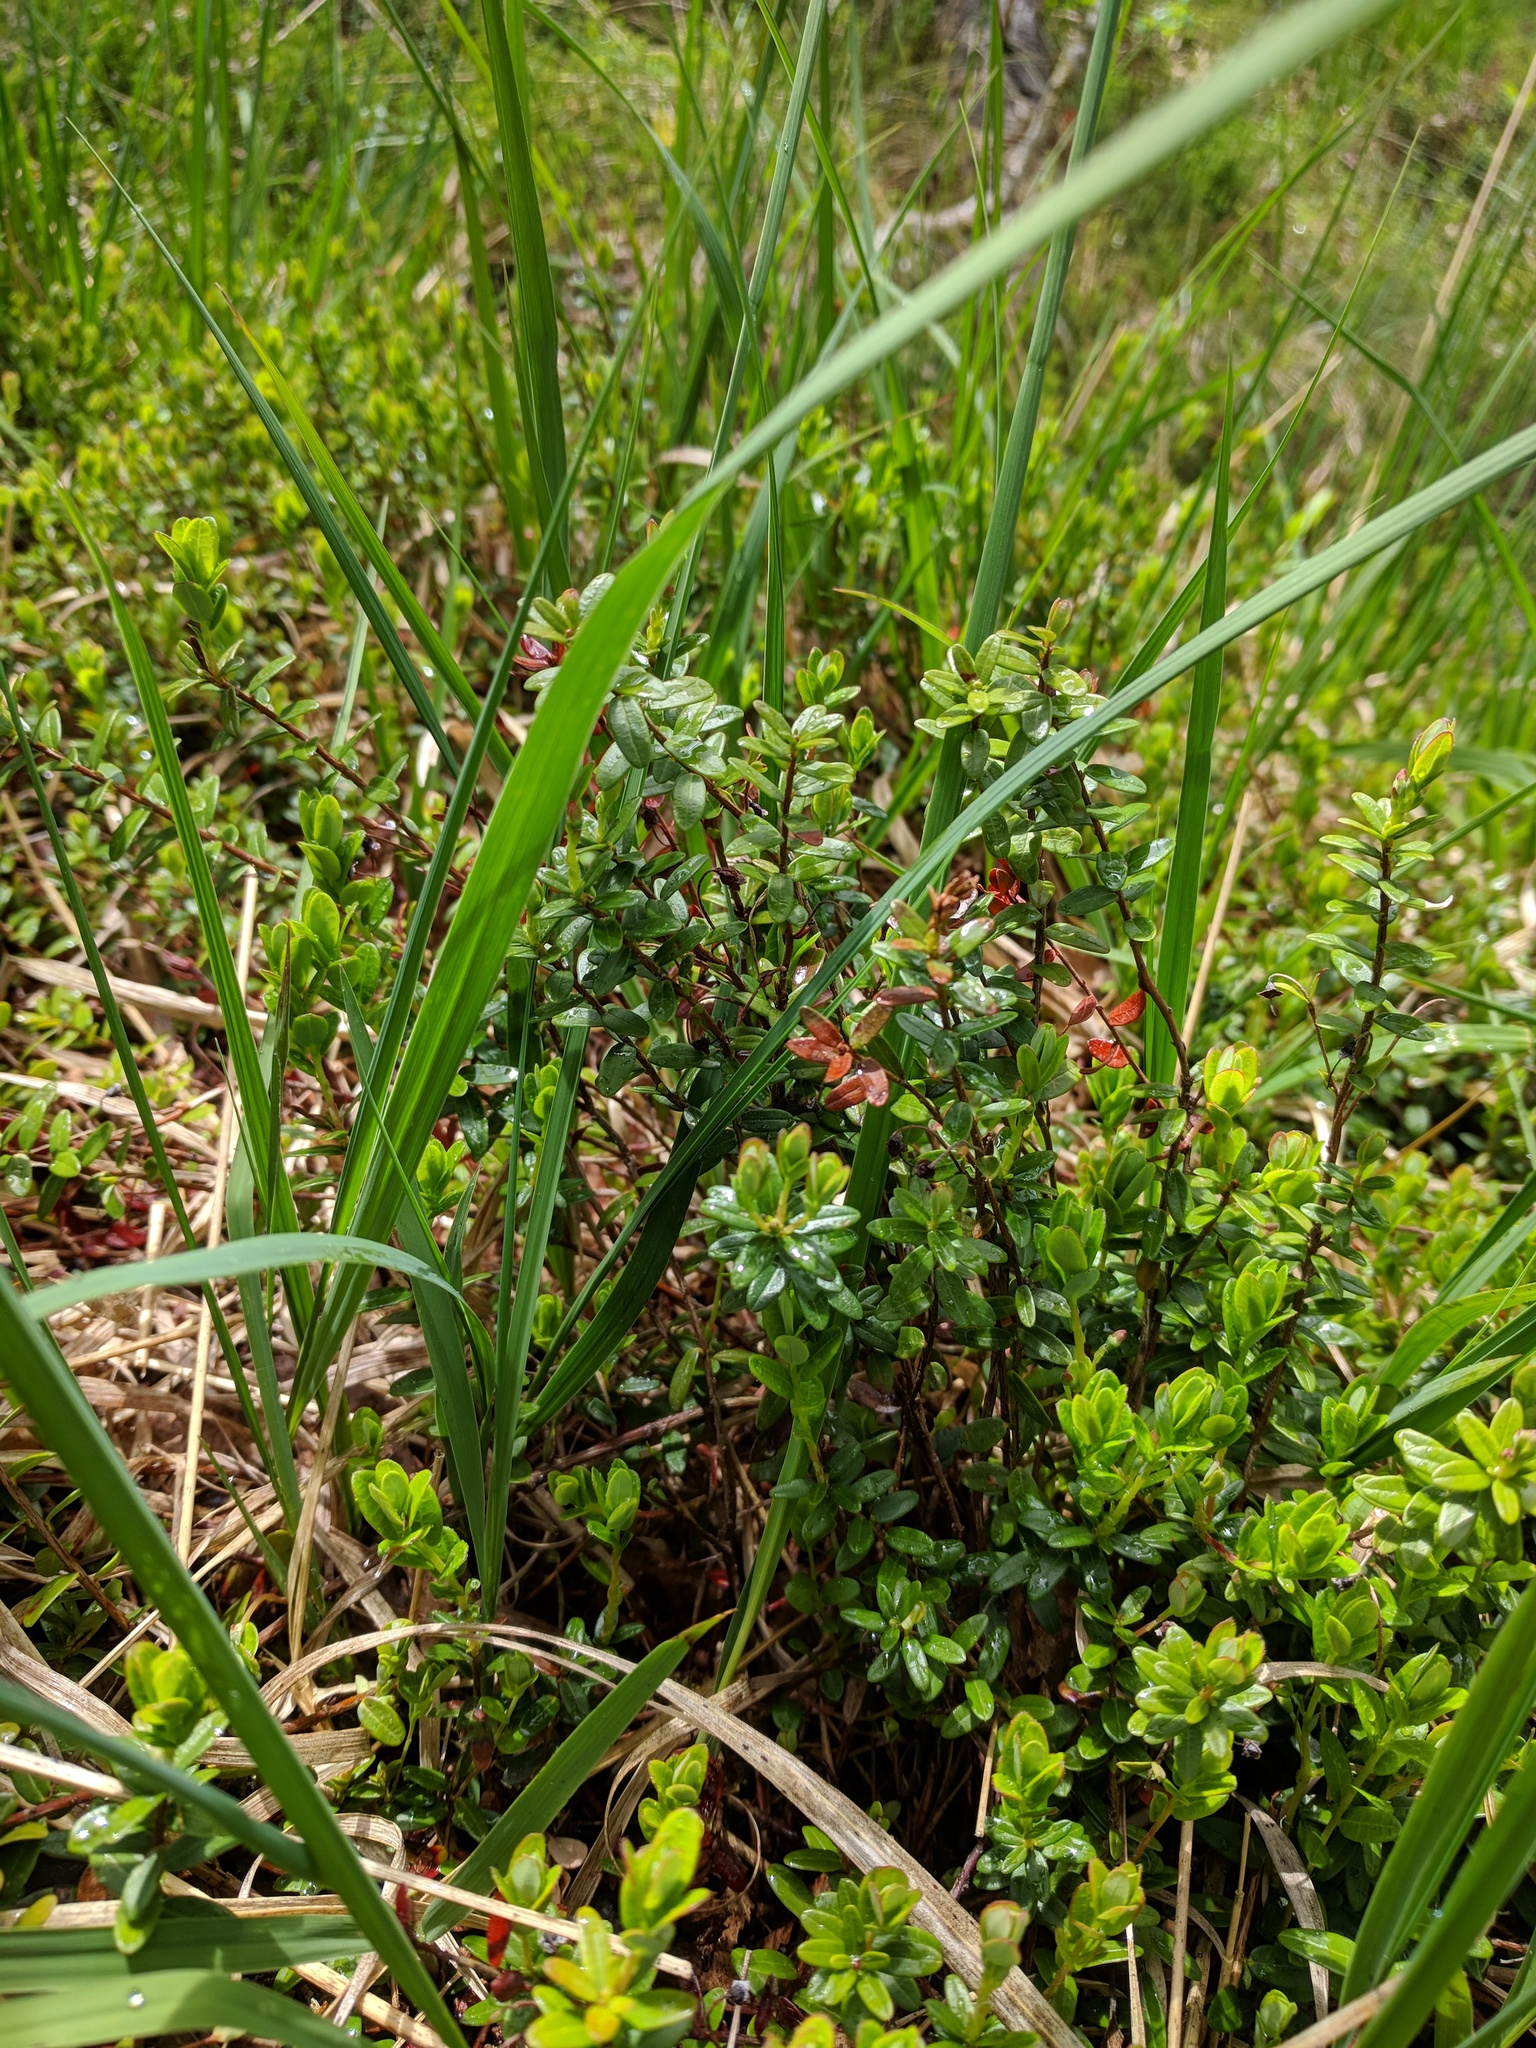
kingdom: Plantae
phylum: Tracheophyta
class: Magnoliopsida
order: Ericales
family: Ericaceae
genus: Vaccinium
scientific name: Vaccinium macrocarpon
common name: American cranberry
